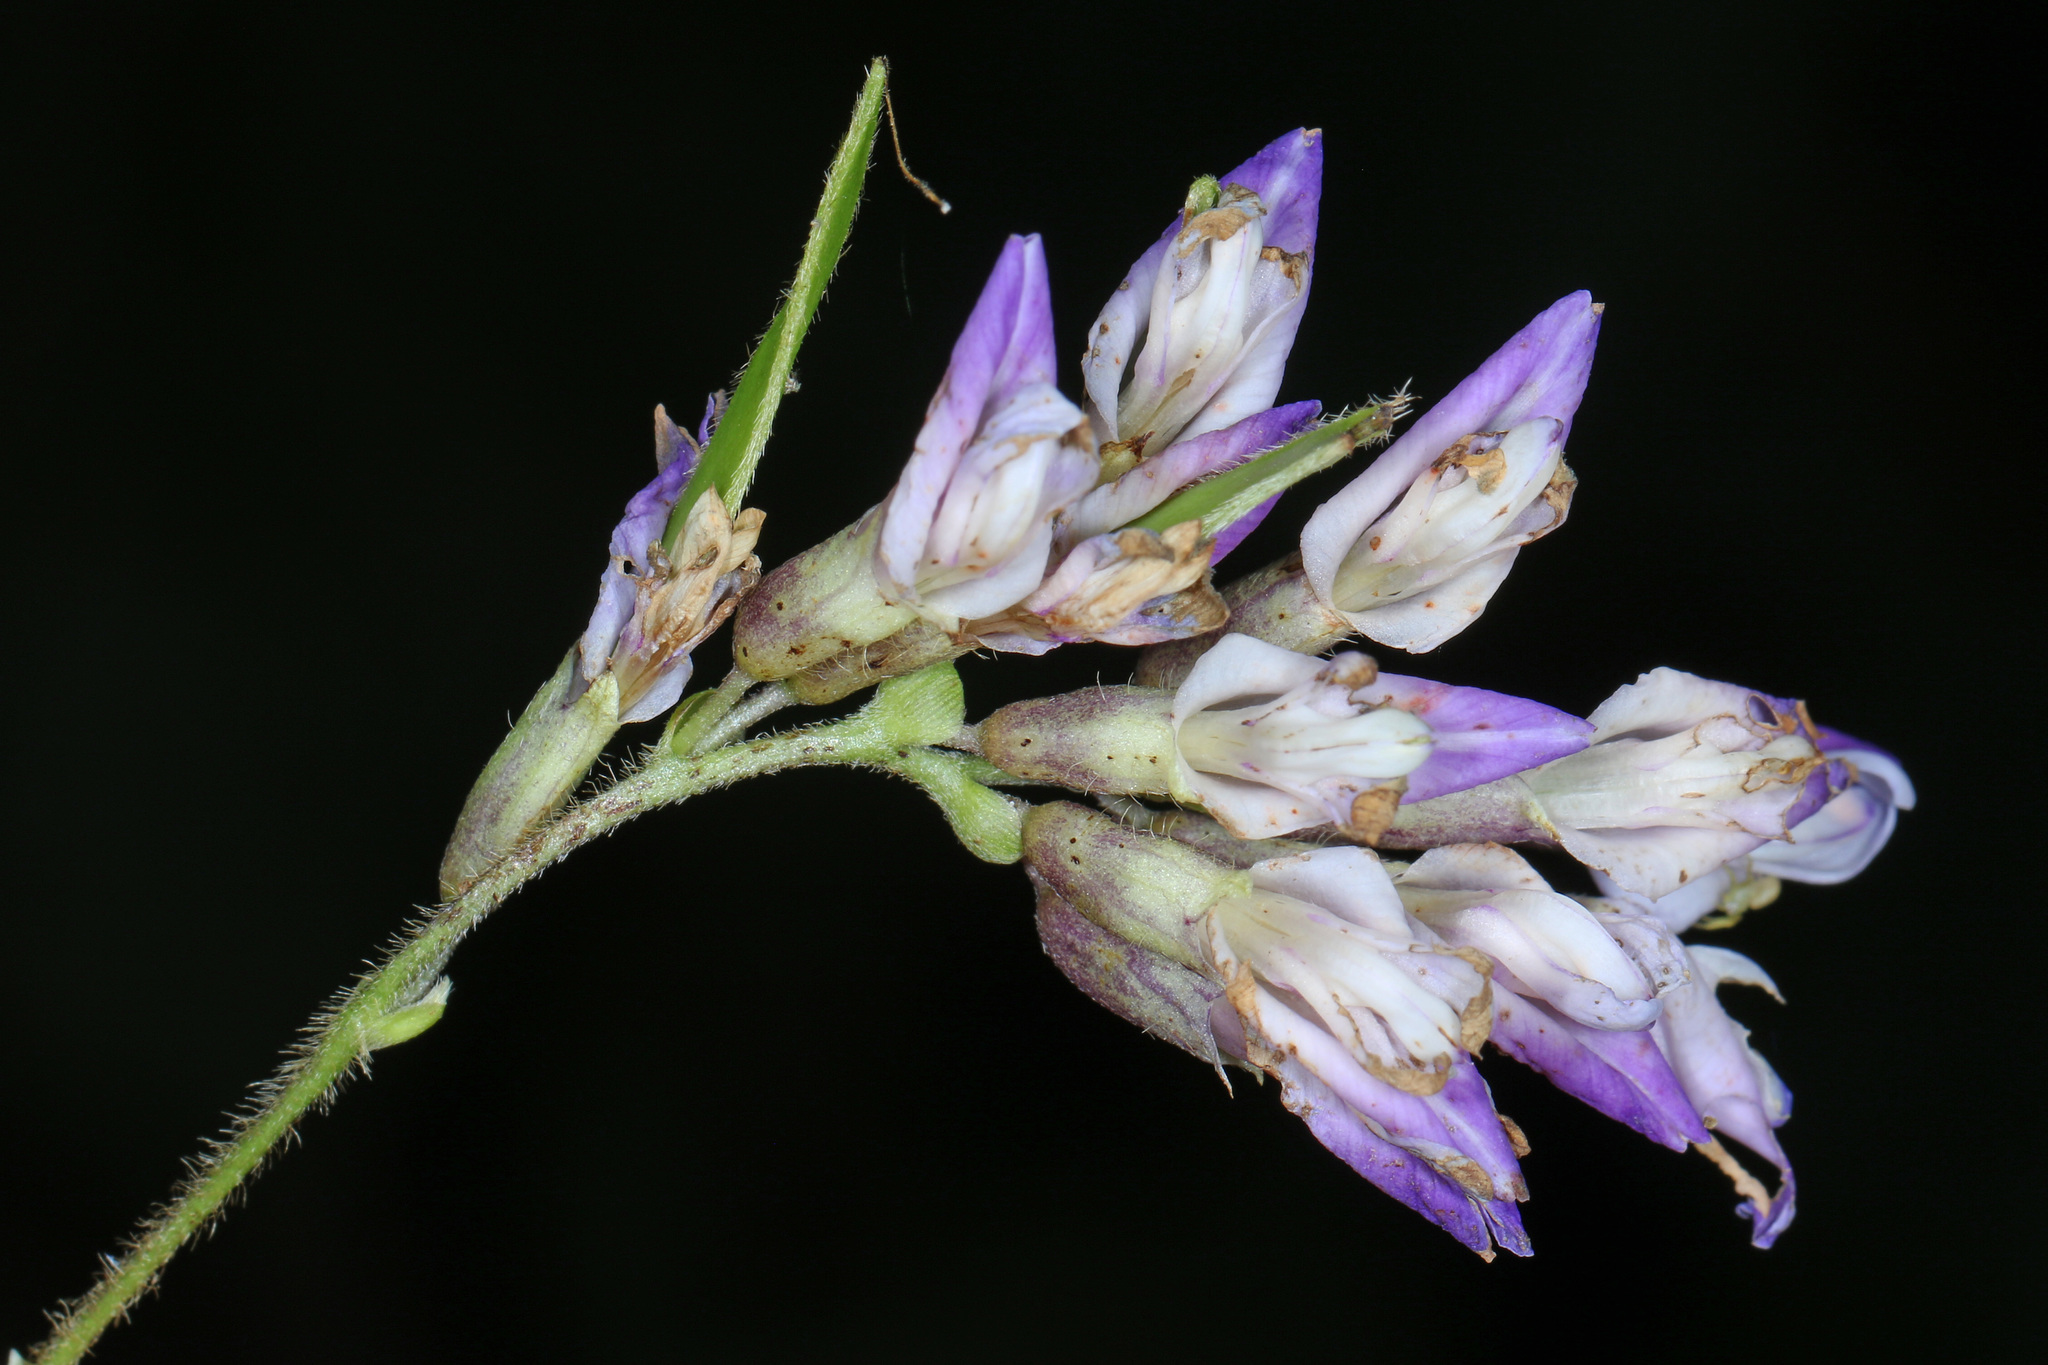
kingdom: Plantae
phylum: Tracheophyta
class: Magnoliopsida
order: Fabales
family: Fabaceae
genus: Amphicarpaea
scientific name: Amphicarpaea bracteata
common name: American hog peanut
